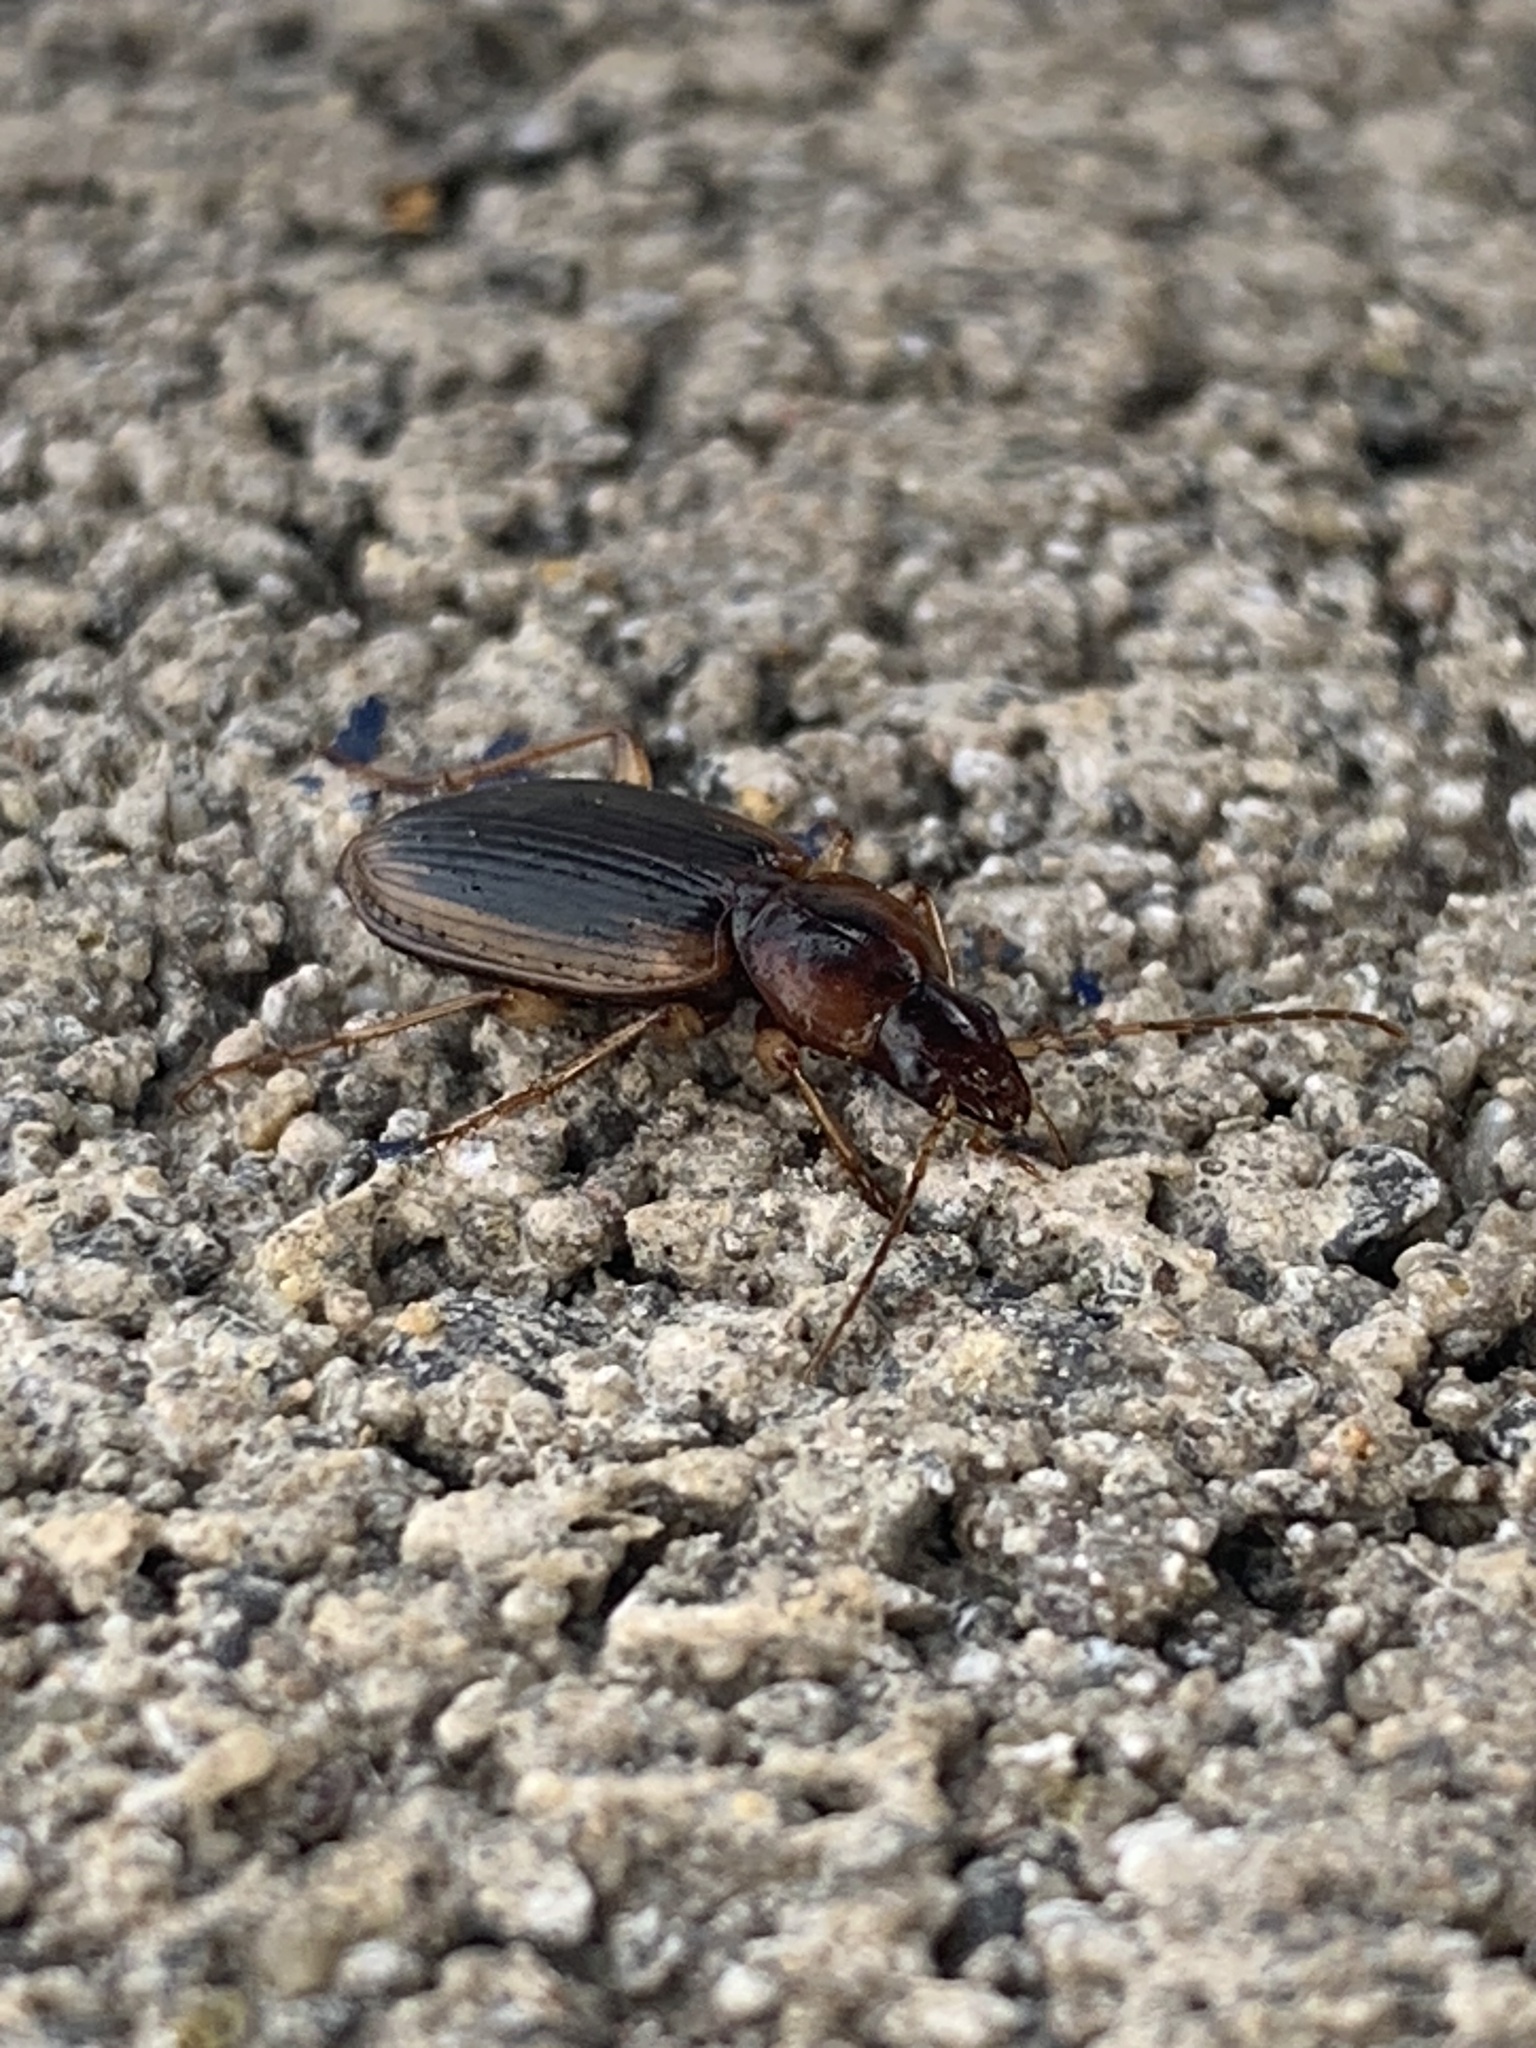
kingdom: Animalia
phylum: Arthropoda
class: Insecta
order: Coleoptera
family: Carabidae
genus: Tanystoma
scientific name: Tanystoma maculicolle
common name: Tule beetle
